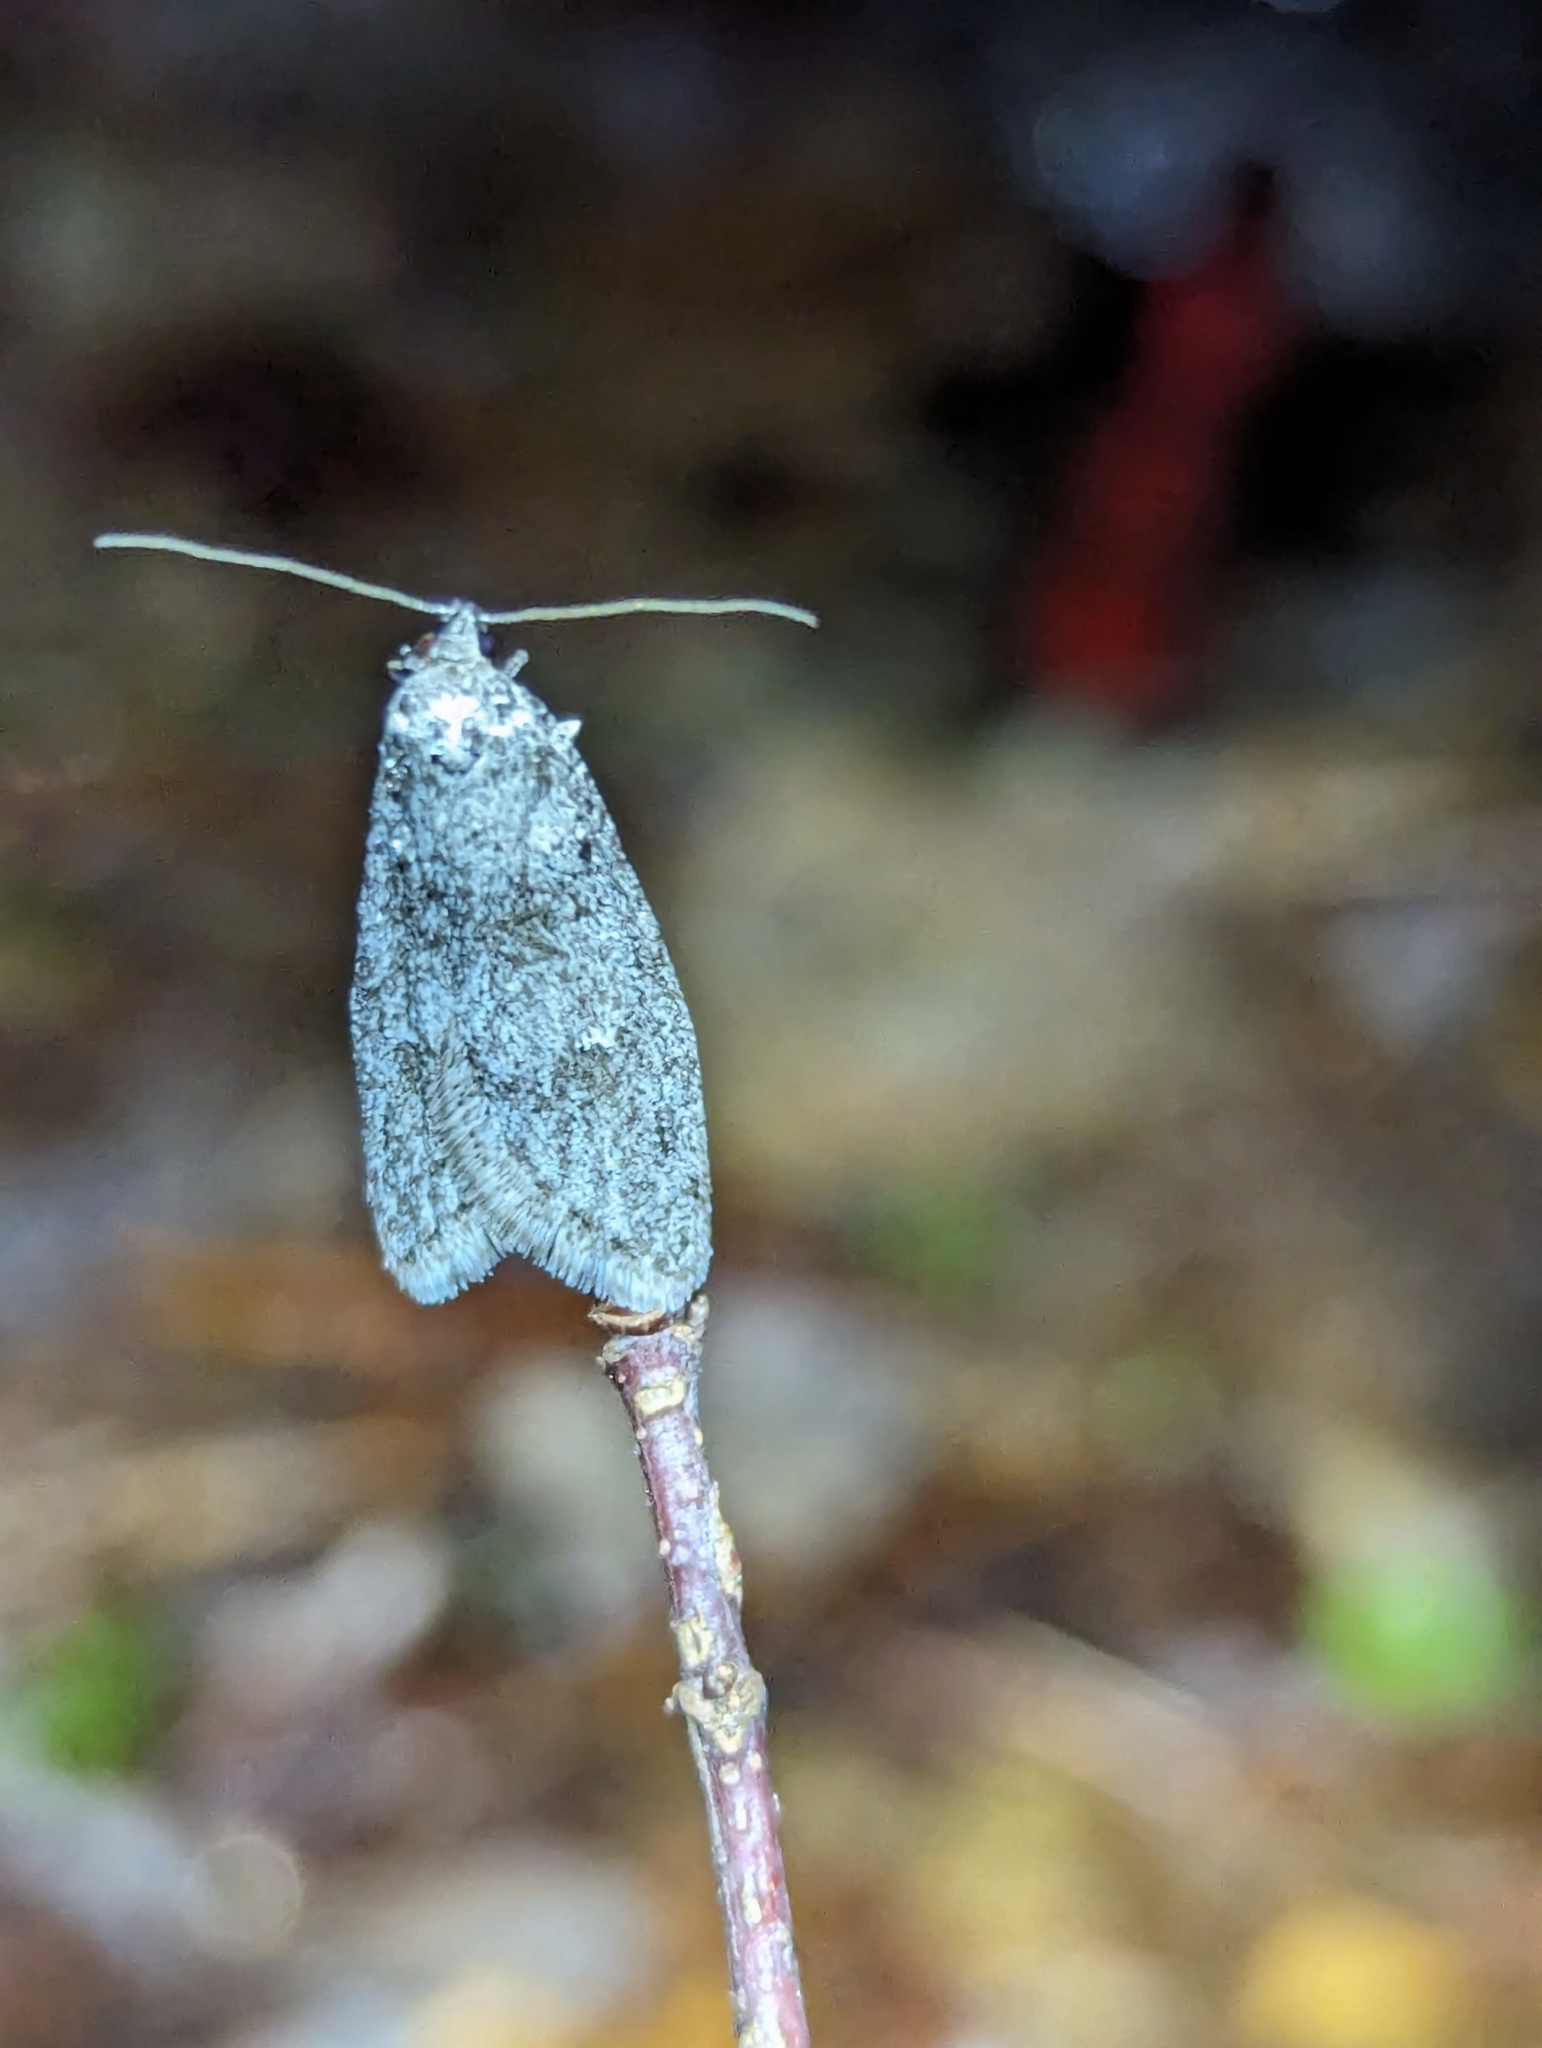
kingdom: Animalia
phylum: Arthropoda
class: Insecta
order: Lepidoptera
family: Depressariidae
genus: Semioscopis
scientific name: Semioscopis inornata
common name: Poplar micromoth
